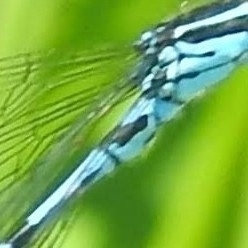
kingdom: Animalia
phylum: Arthropoda
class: Insecta
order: Odonata
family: Coenagrionidae
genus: Coenagrion
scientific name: Coenagrion pulchellum
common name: Variable bluet
